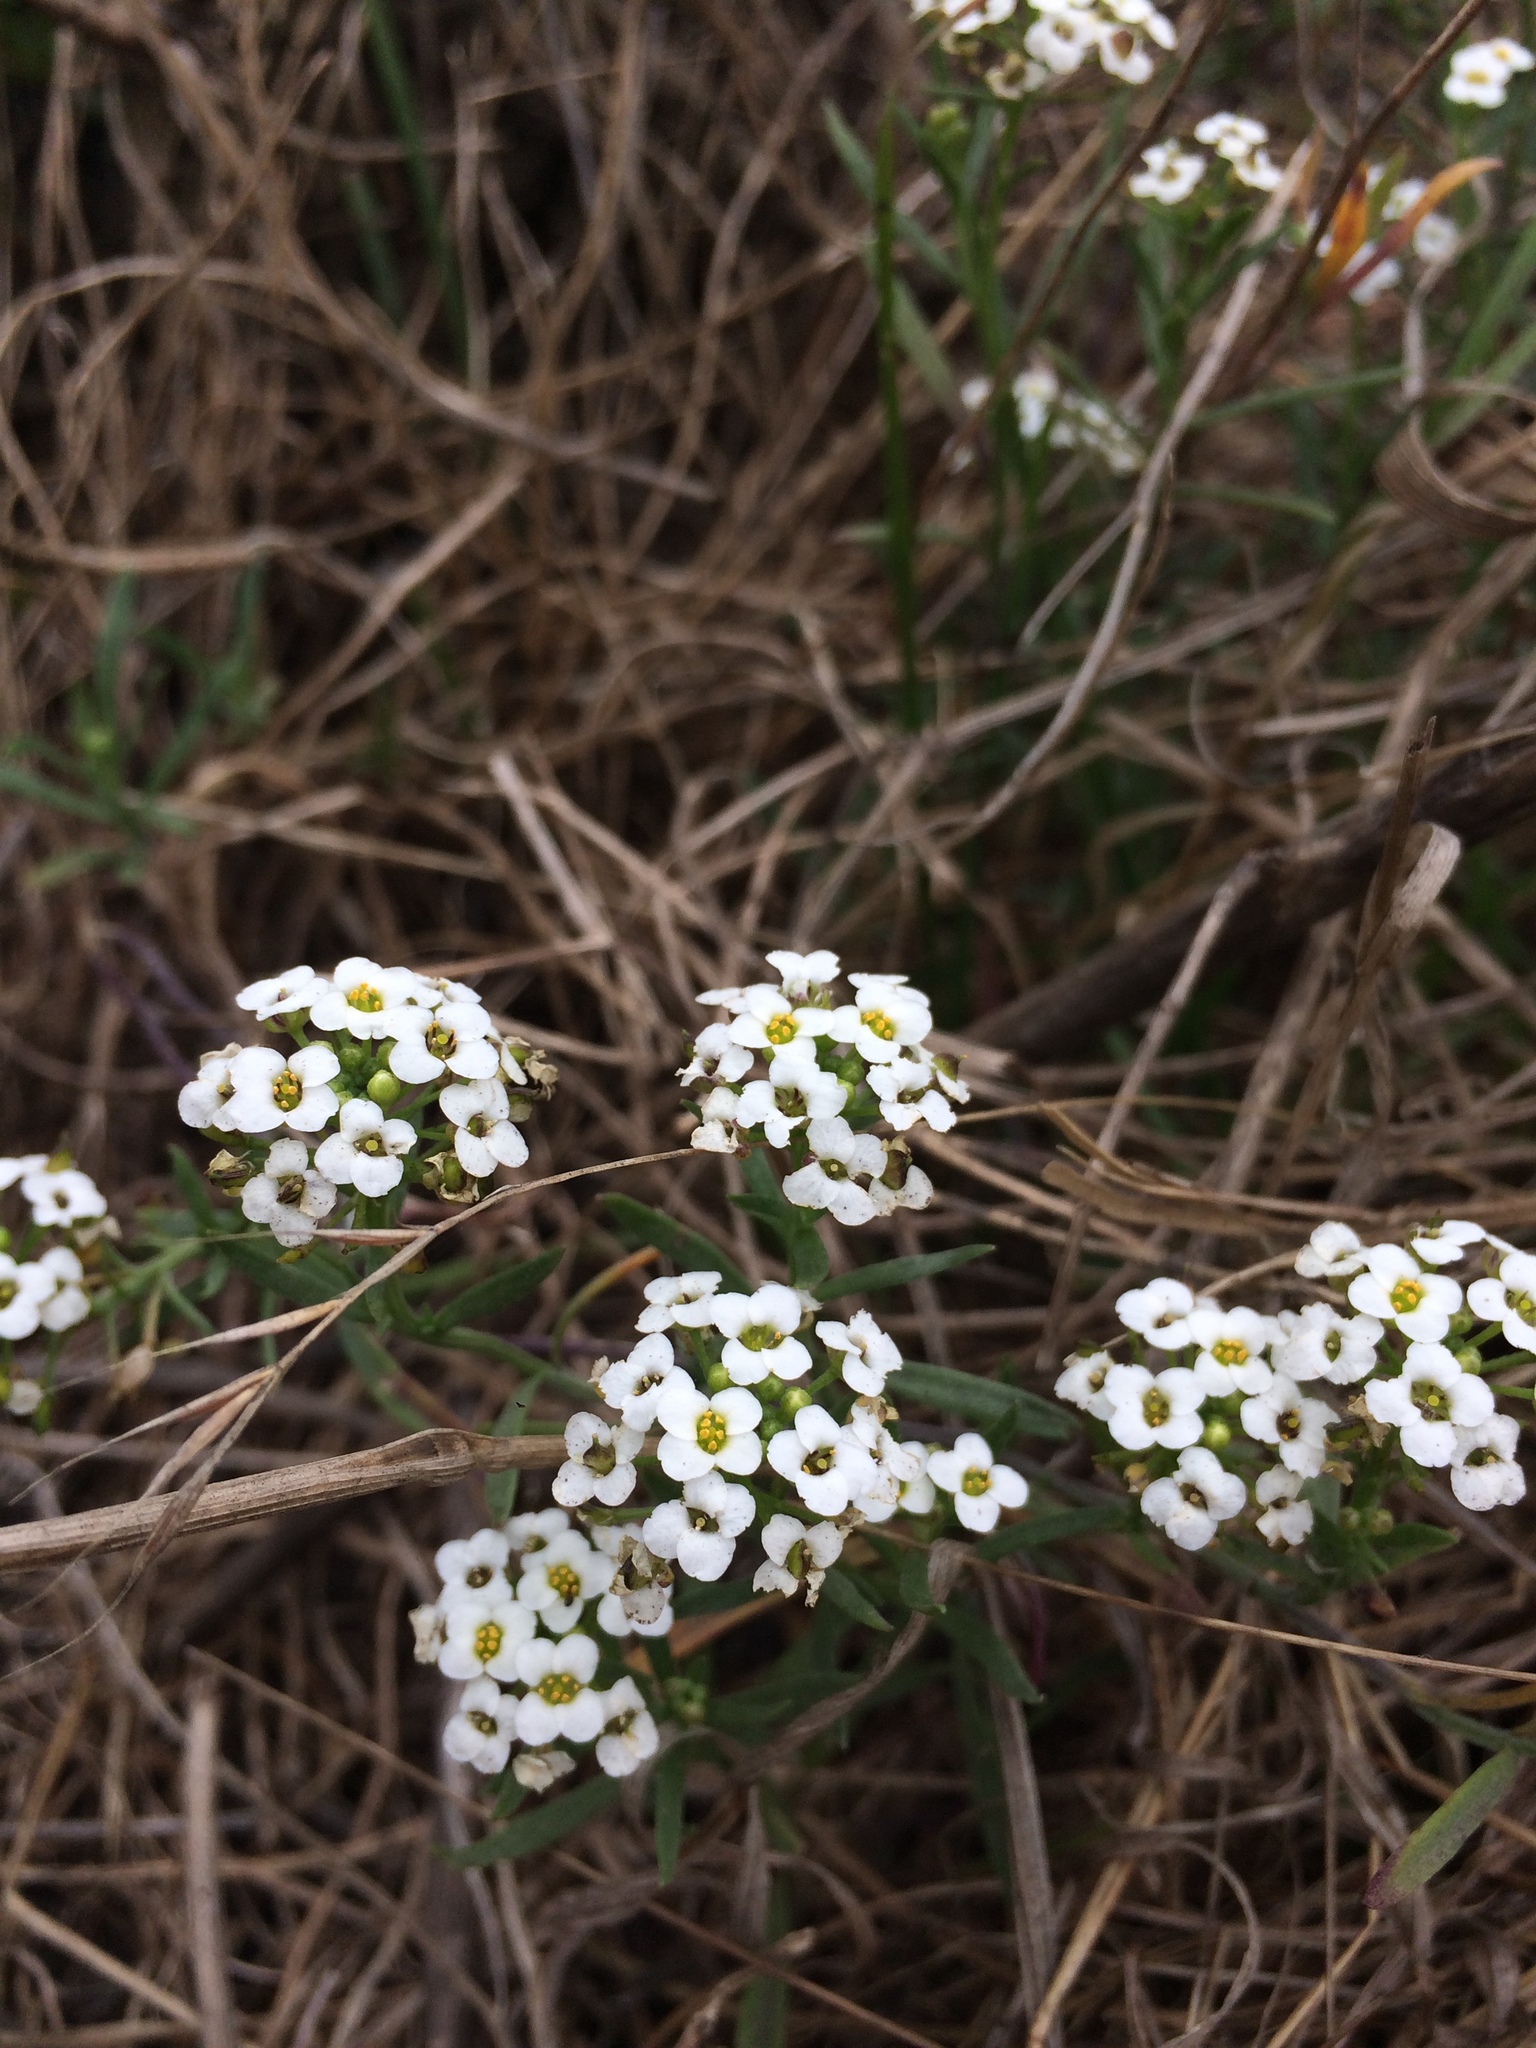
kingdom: Plantae
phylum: Tracheophyta
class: Magnoliopsida
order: Brassicales
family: Brassicaceae
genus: Lobularia
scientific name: Lobularia maritima
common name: Sweet alison
